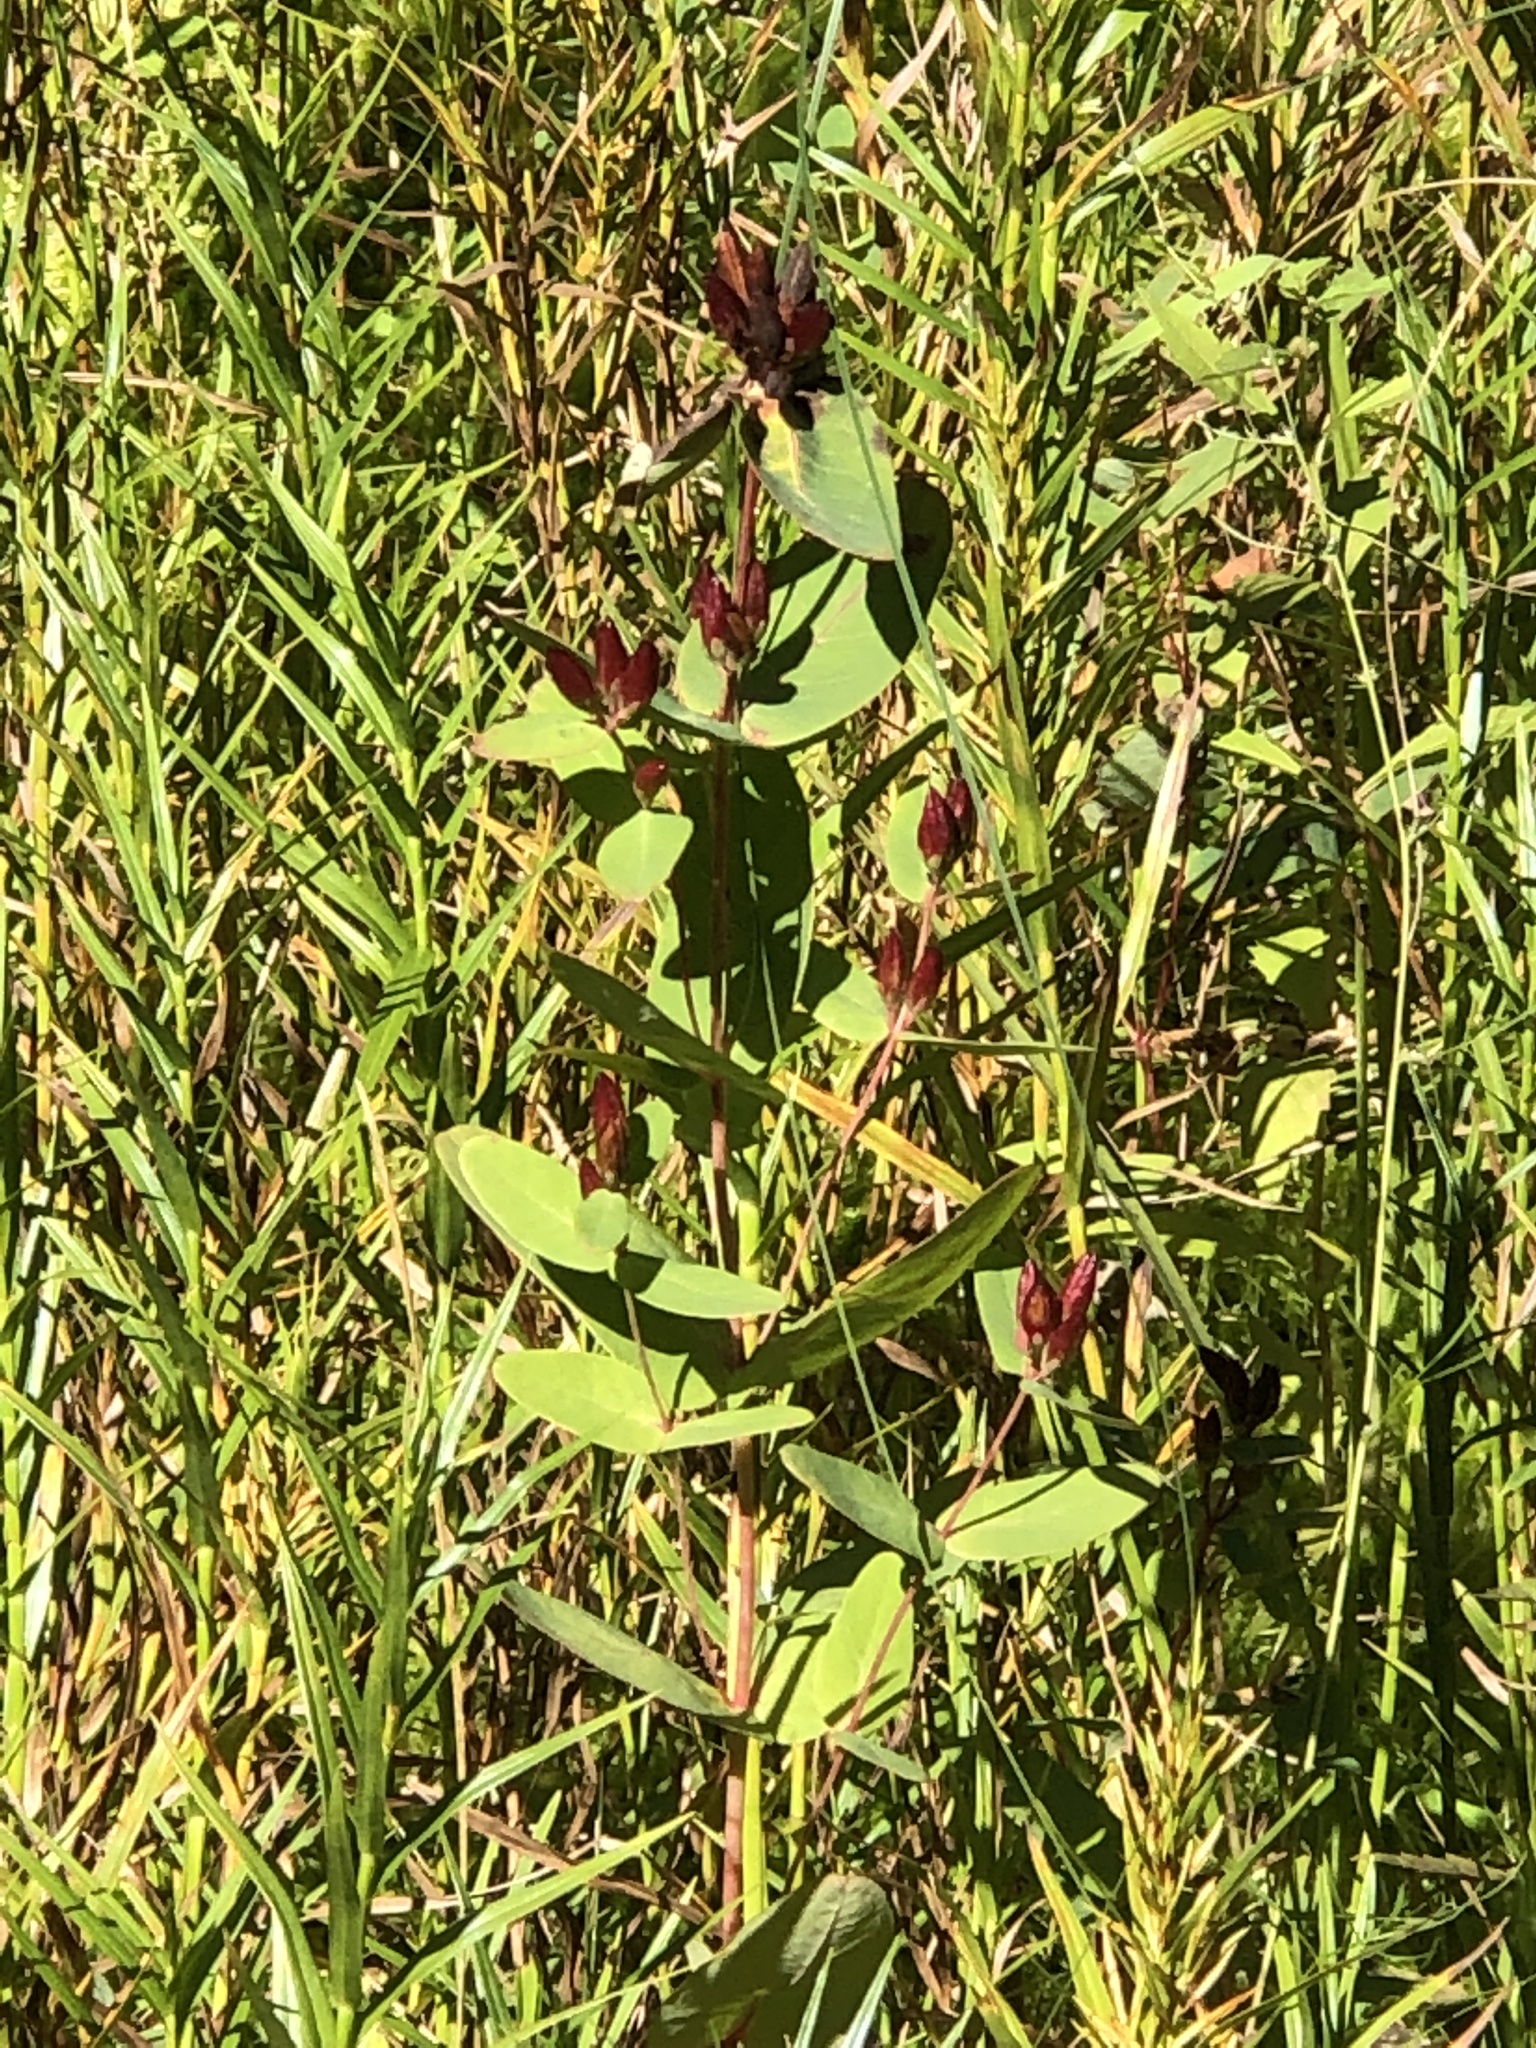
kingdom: Plantae
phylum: Tracheophyta
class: Magnoliopsida
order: Malpighiales
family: Hypericaceae
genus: Triadenum
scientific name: Triadenum fraseri
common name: Fraser's marsh st. johnswort
